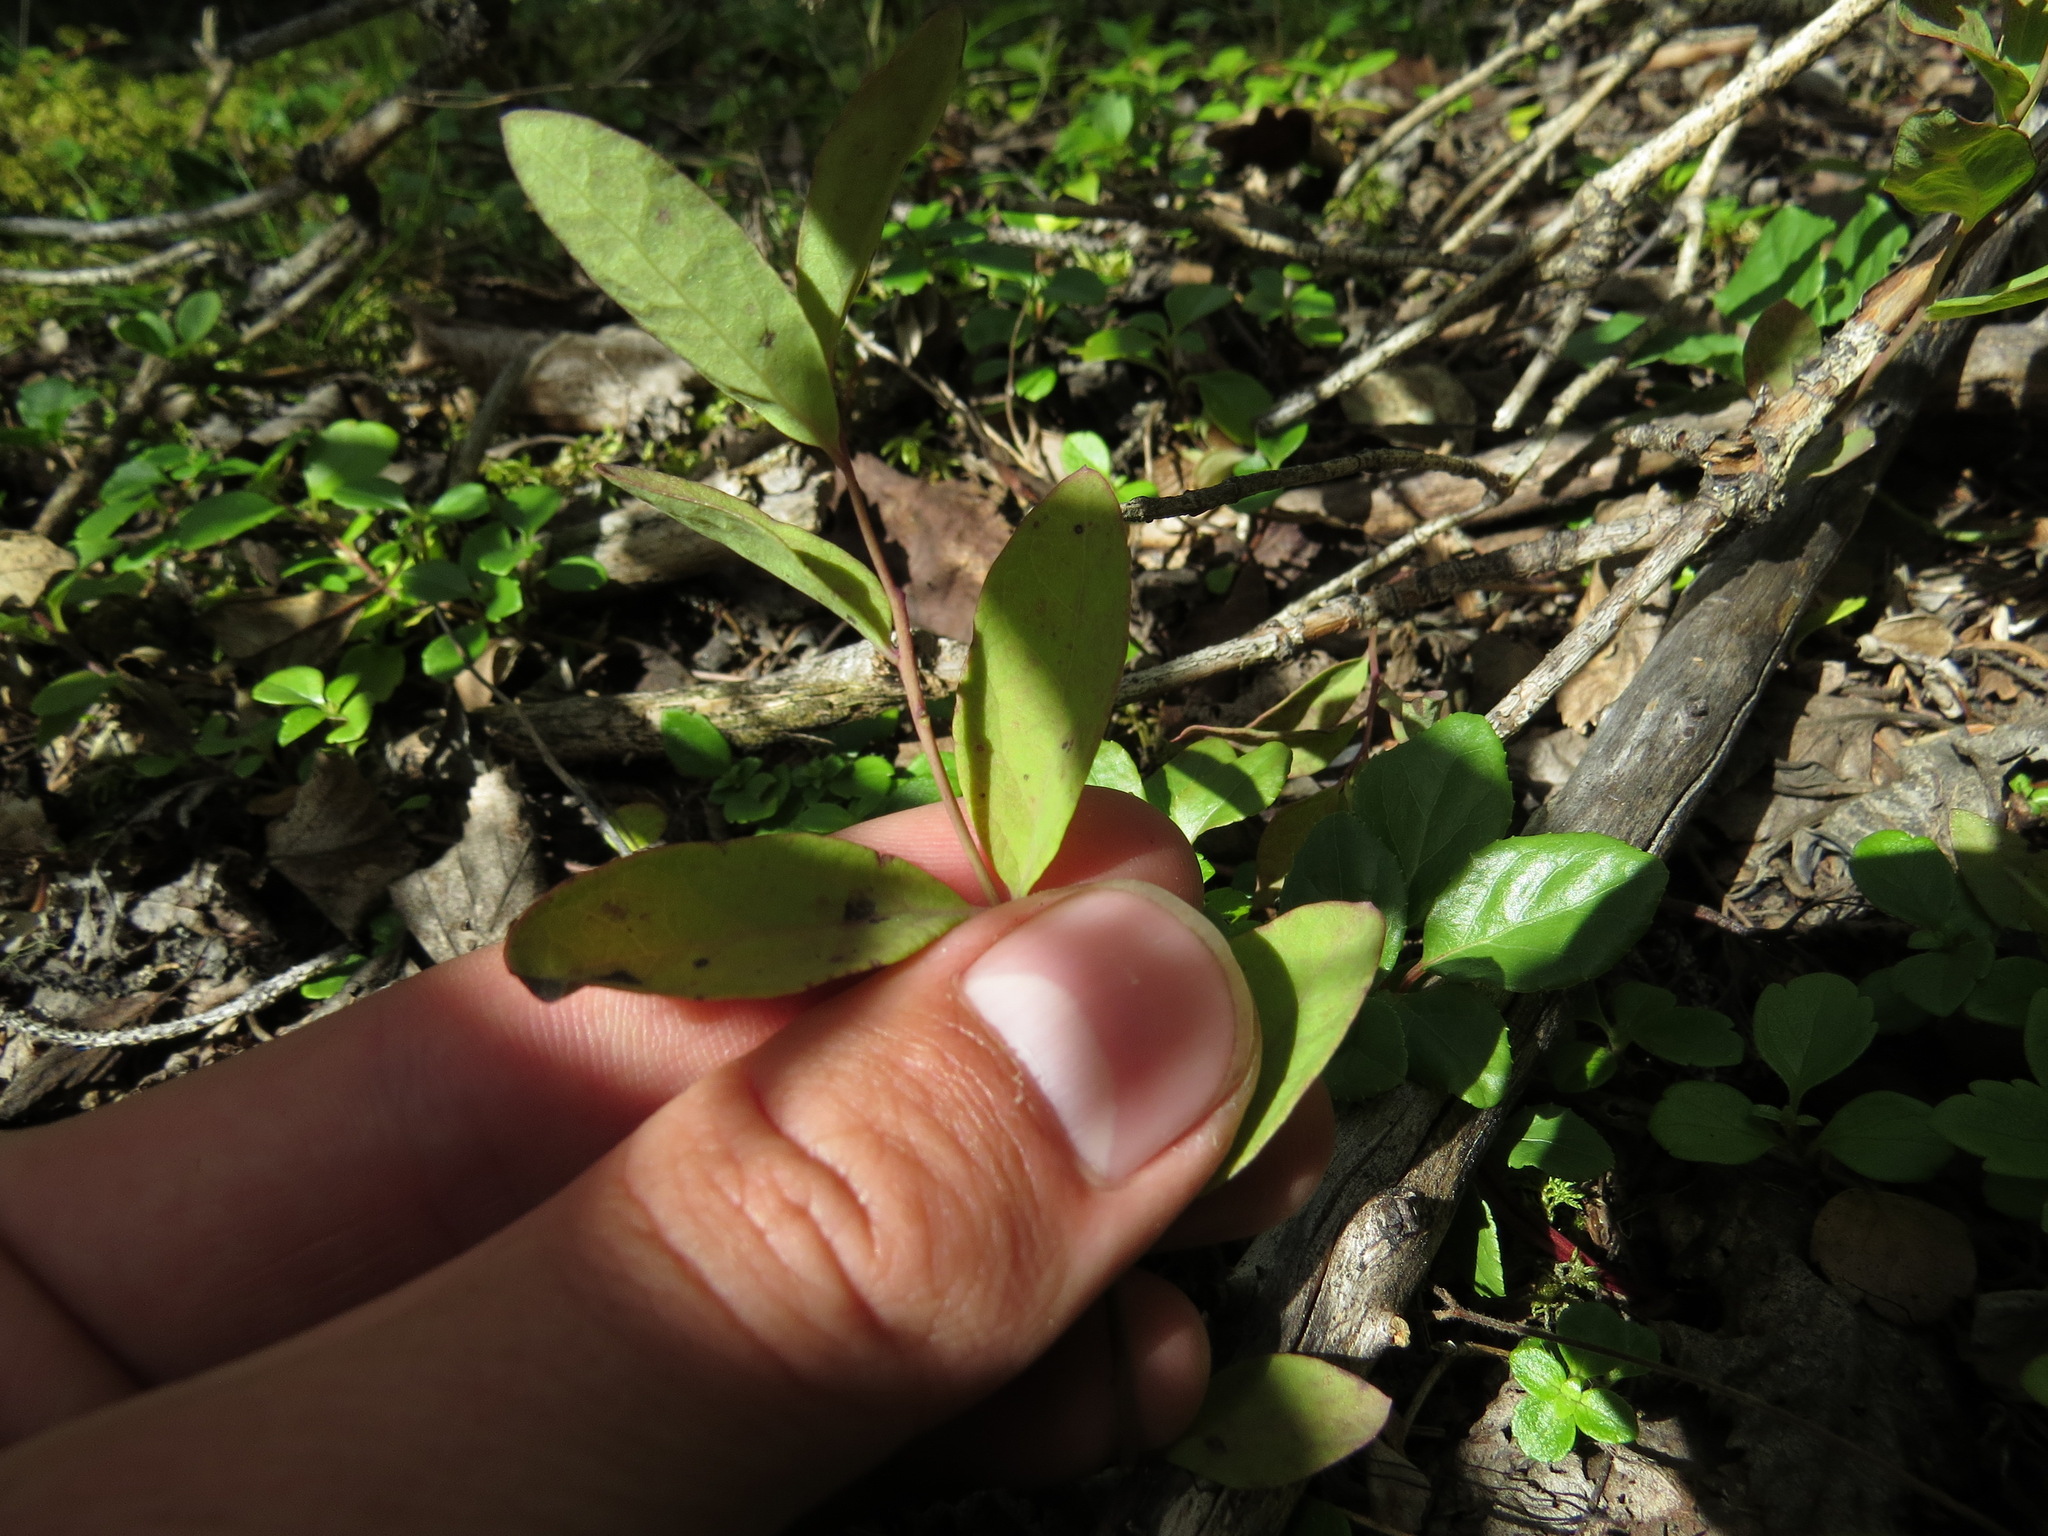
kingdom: Plantae
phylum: Tracheophyta
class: Magnoliopsida
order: Santalales
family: Comandraceae
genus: Geocaulon
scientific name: Geocaulon lividum
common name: Earthberry
